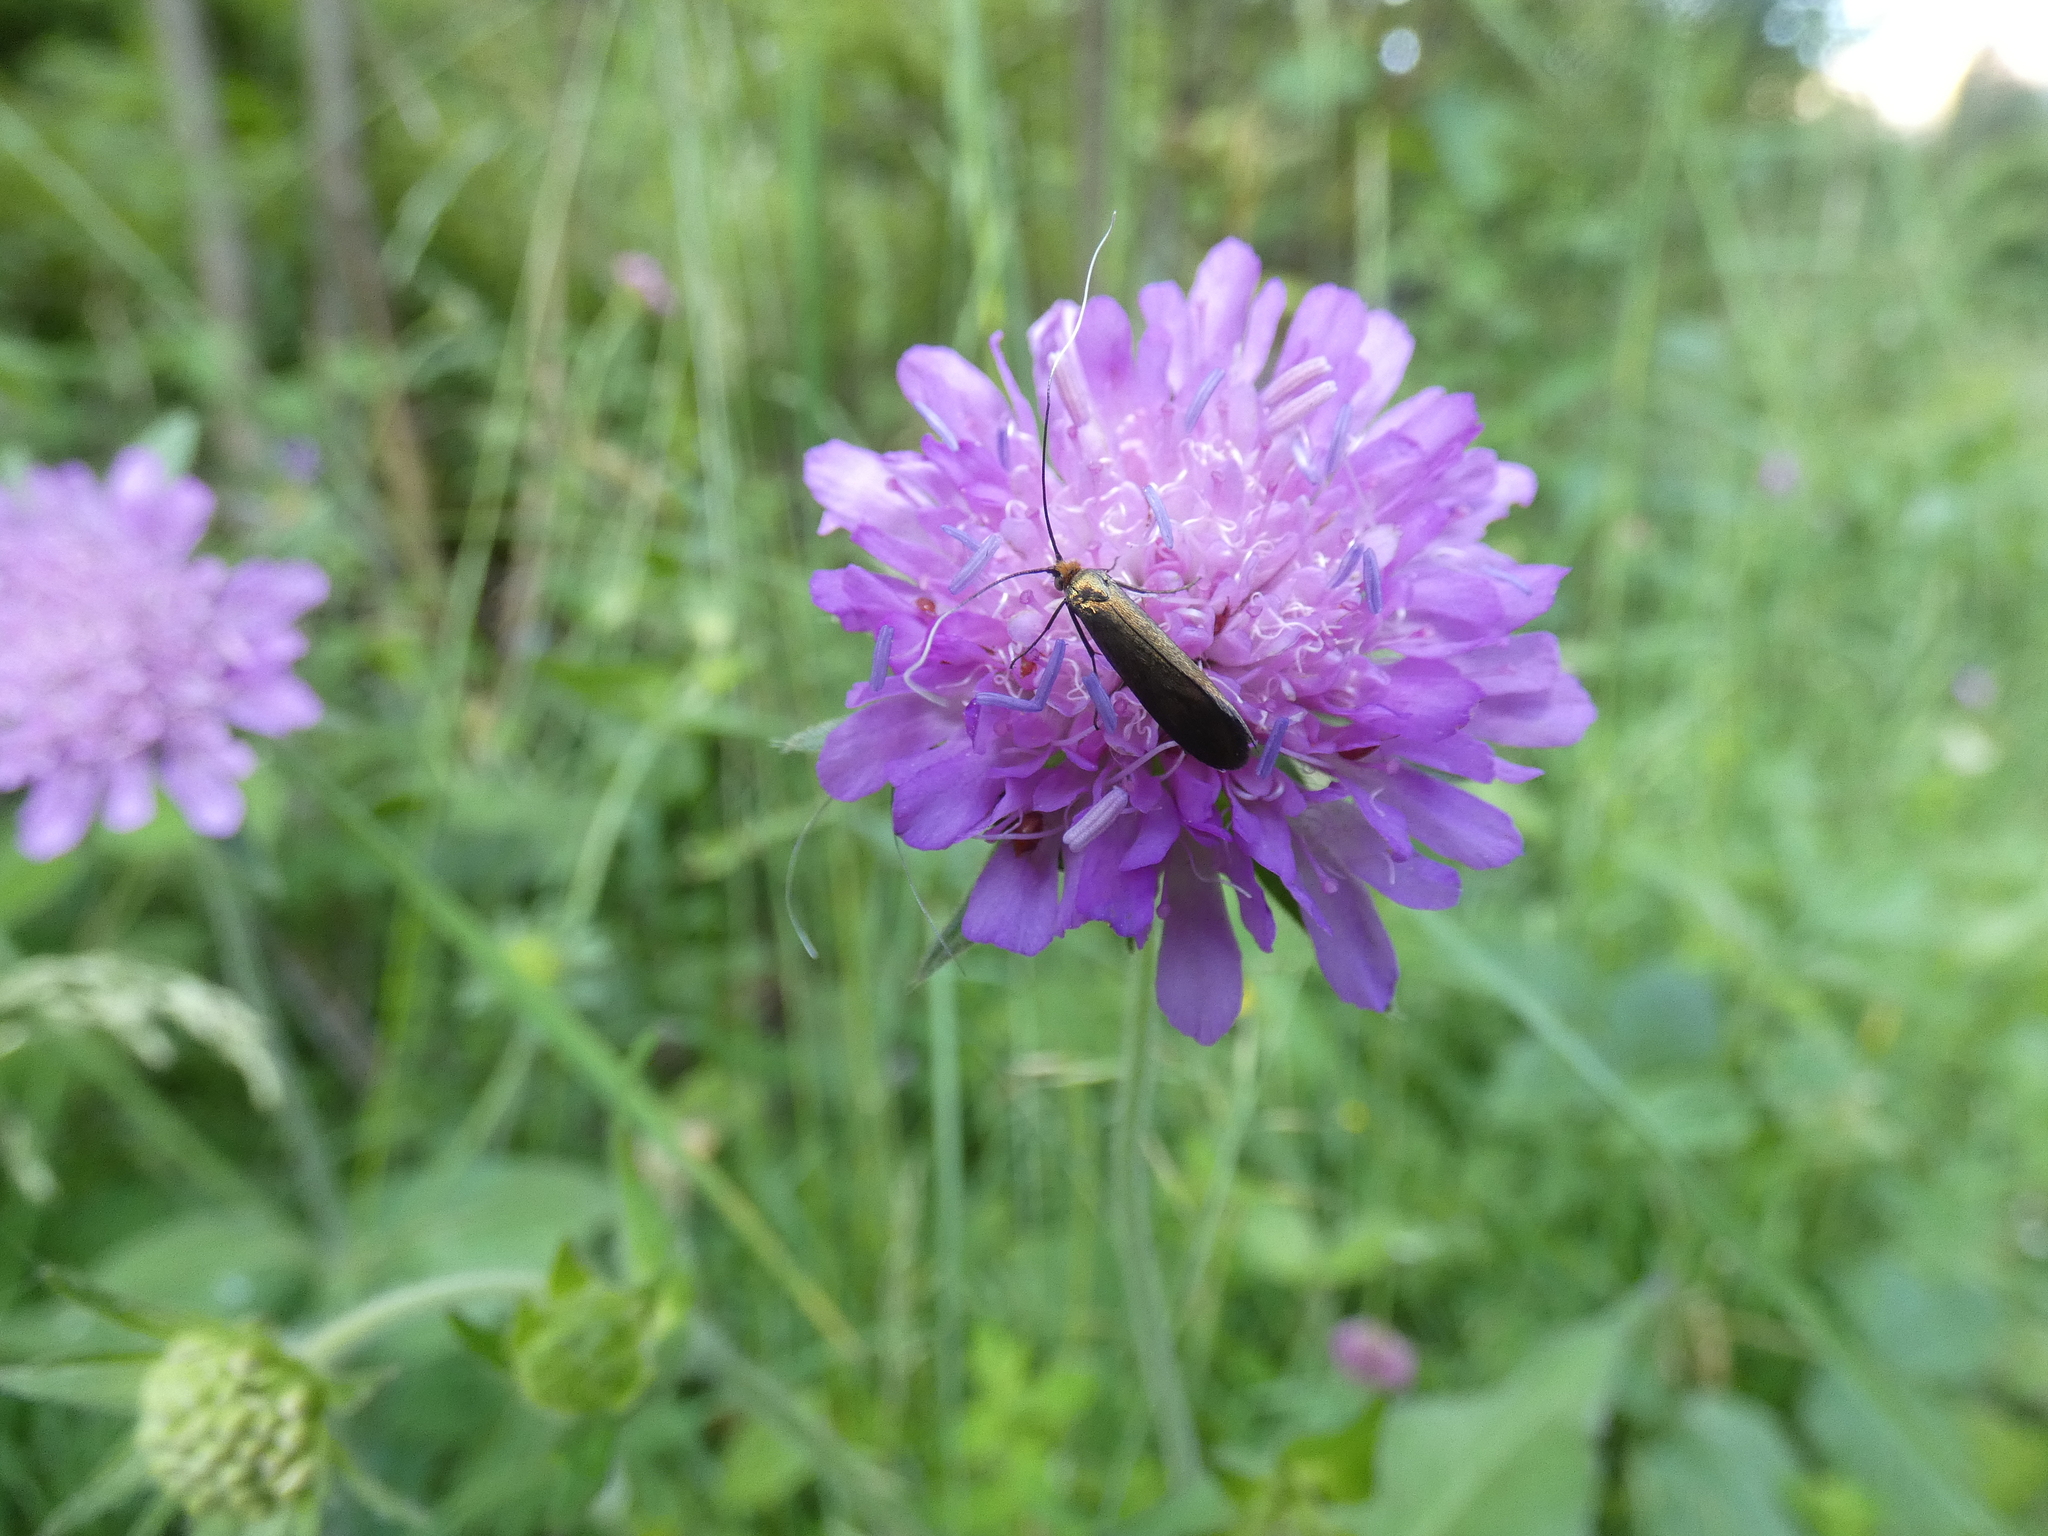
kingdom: Animalia
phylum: Arthropoda
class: Insecta
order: Lepidoptera
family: Adelidae
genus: Nemophora
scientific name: Nemophora metallica
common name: Brassy long-horn
